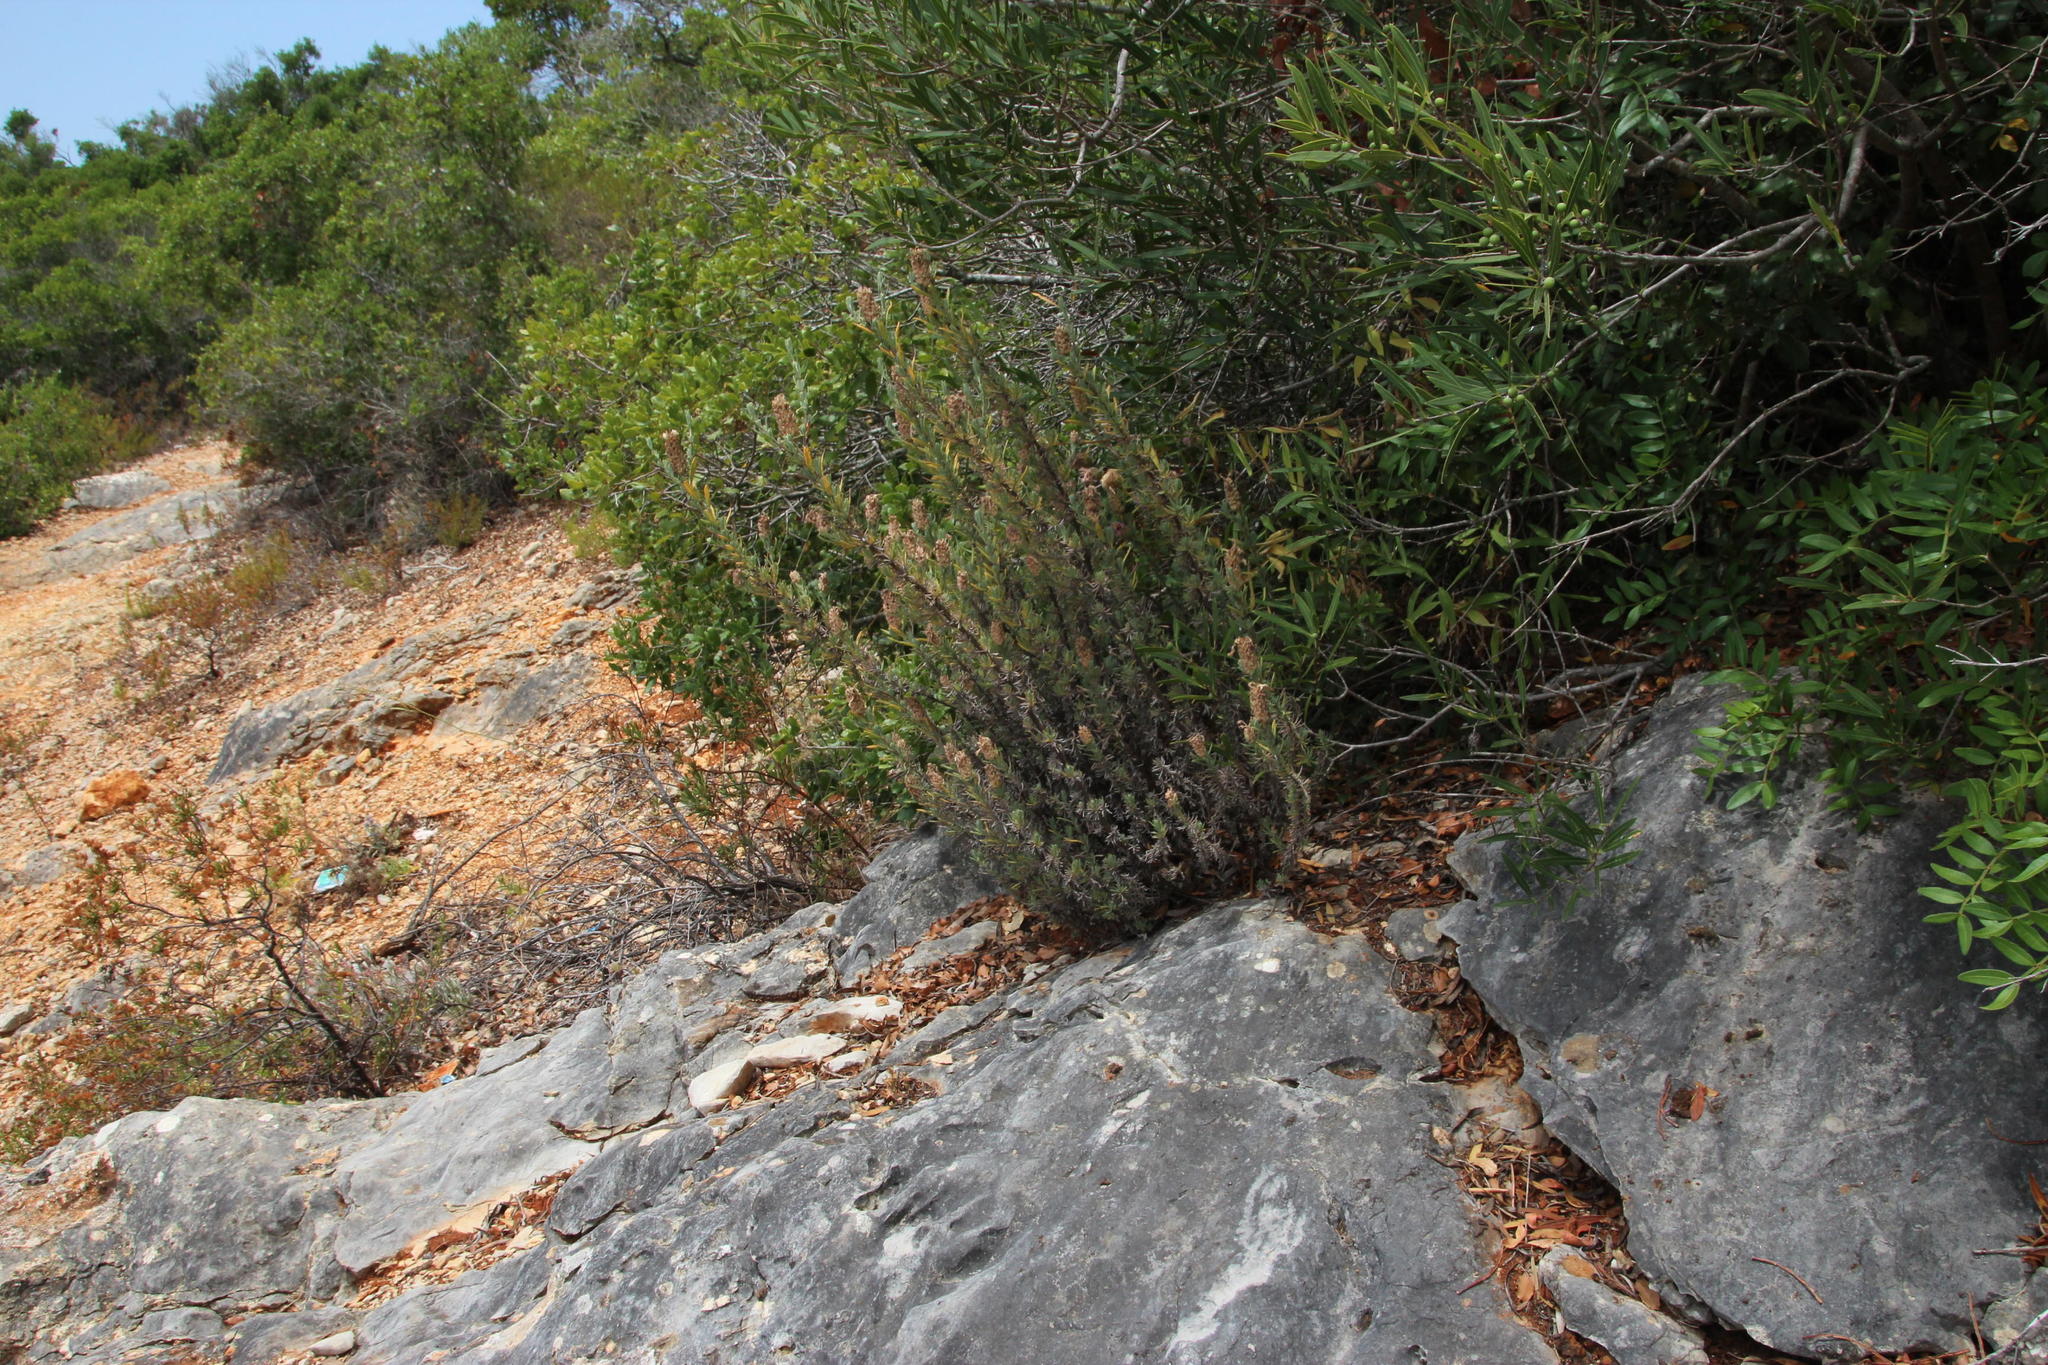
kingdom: Plantae
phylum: Tracheophyta
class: Magnoliopsida
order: Lamiales
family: Lamiaceae
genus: Lavandula
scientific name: Lavandula stoechas
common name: French lavender
